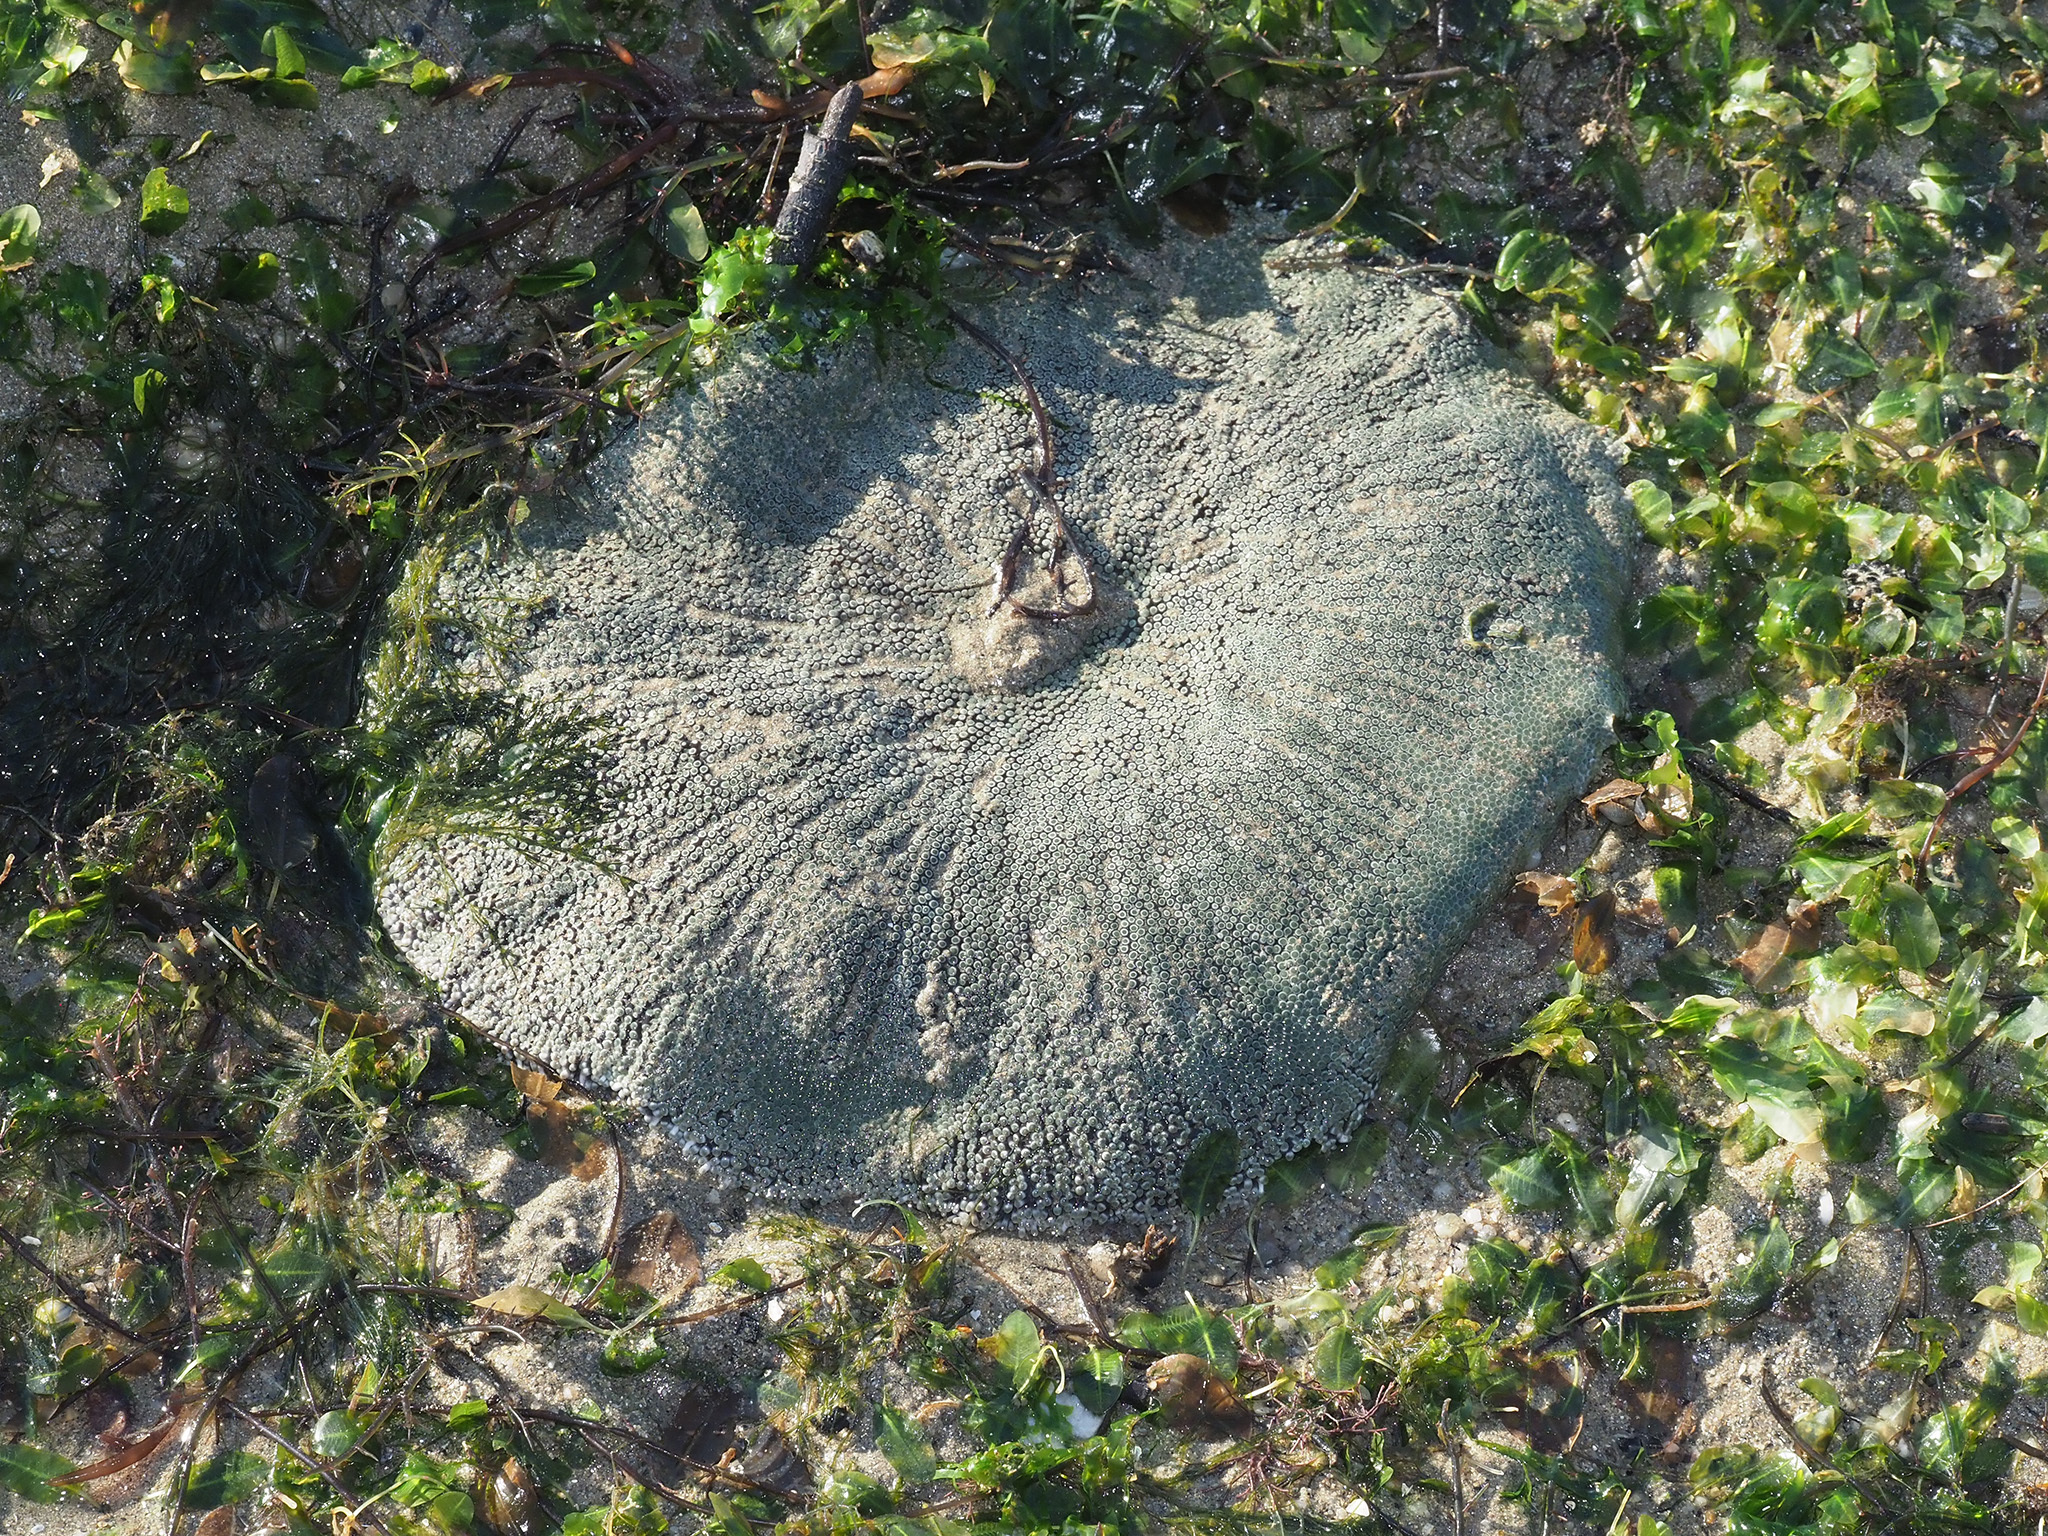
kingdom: Animalia
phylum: Cnidaria
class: Anthozoa
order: Actiniaria
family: Stichodactylidae
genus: Stichodactyla
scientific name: Stichodactyla haddoni
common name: Haddon's sea anemone
